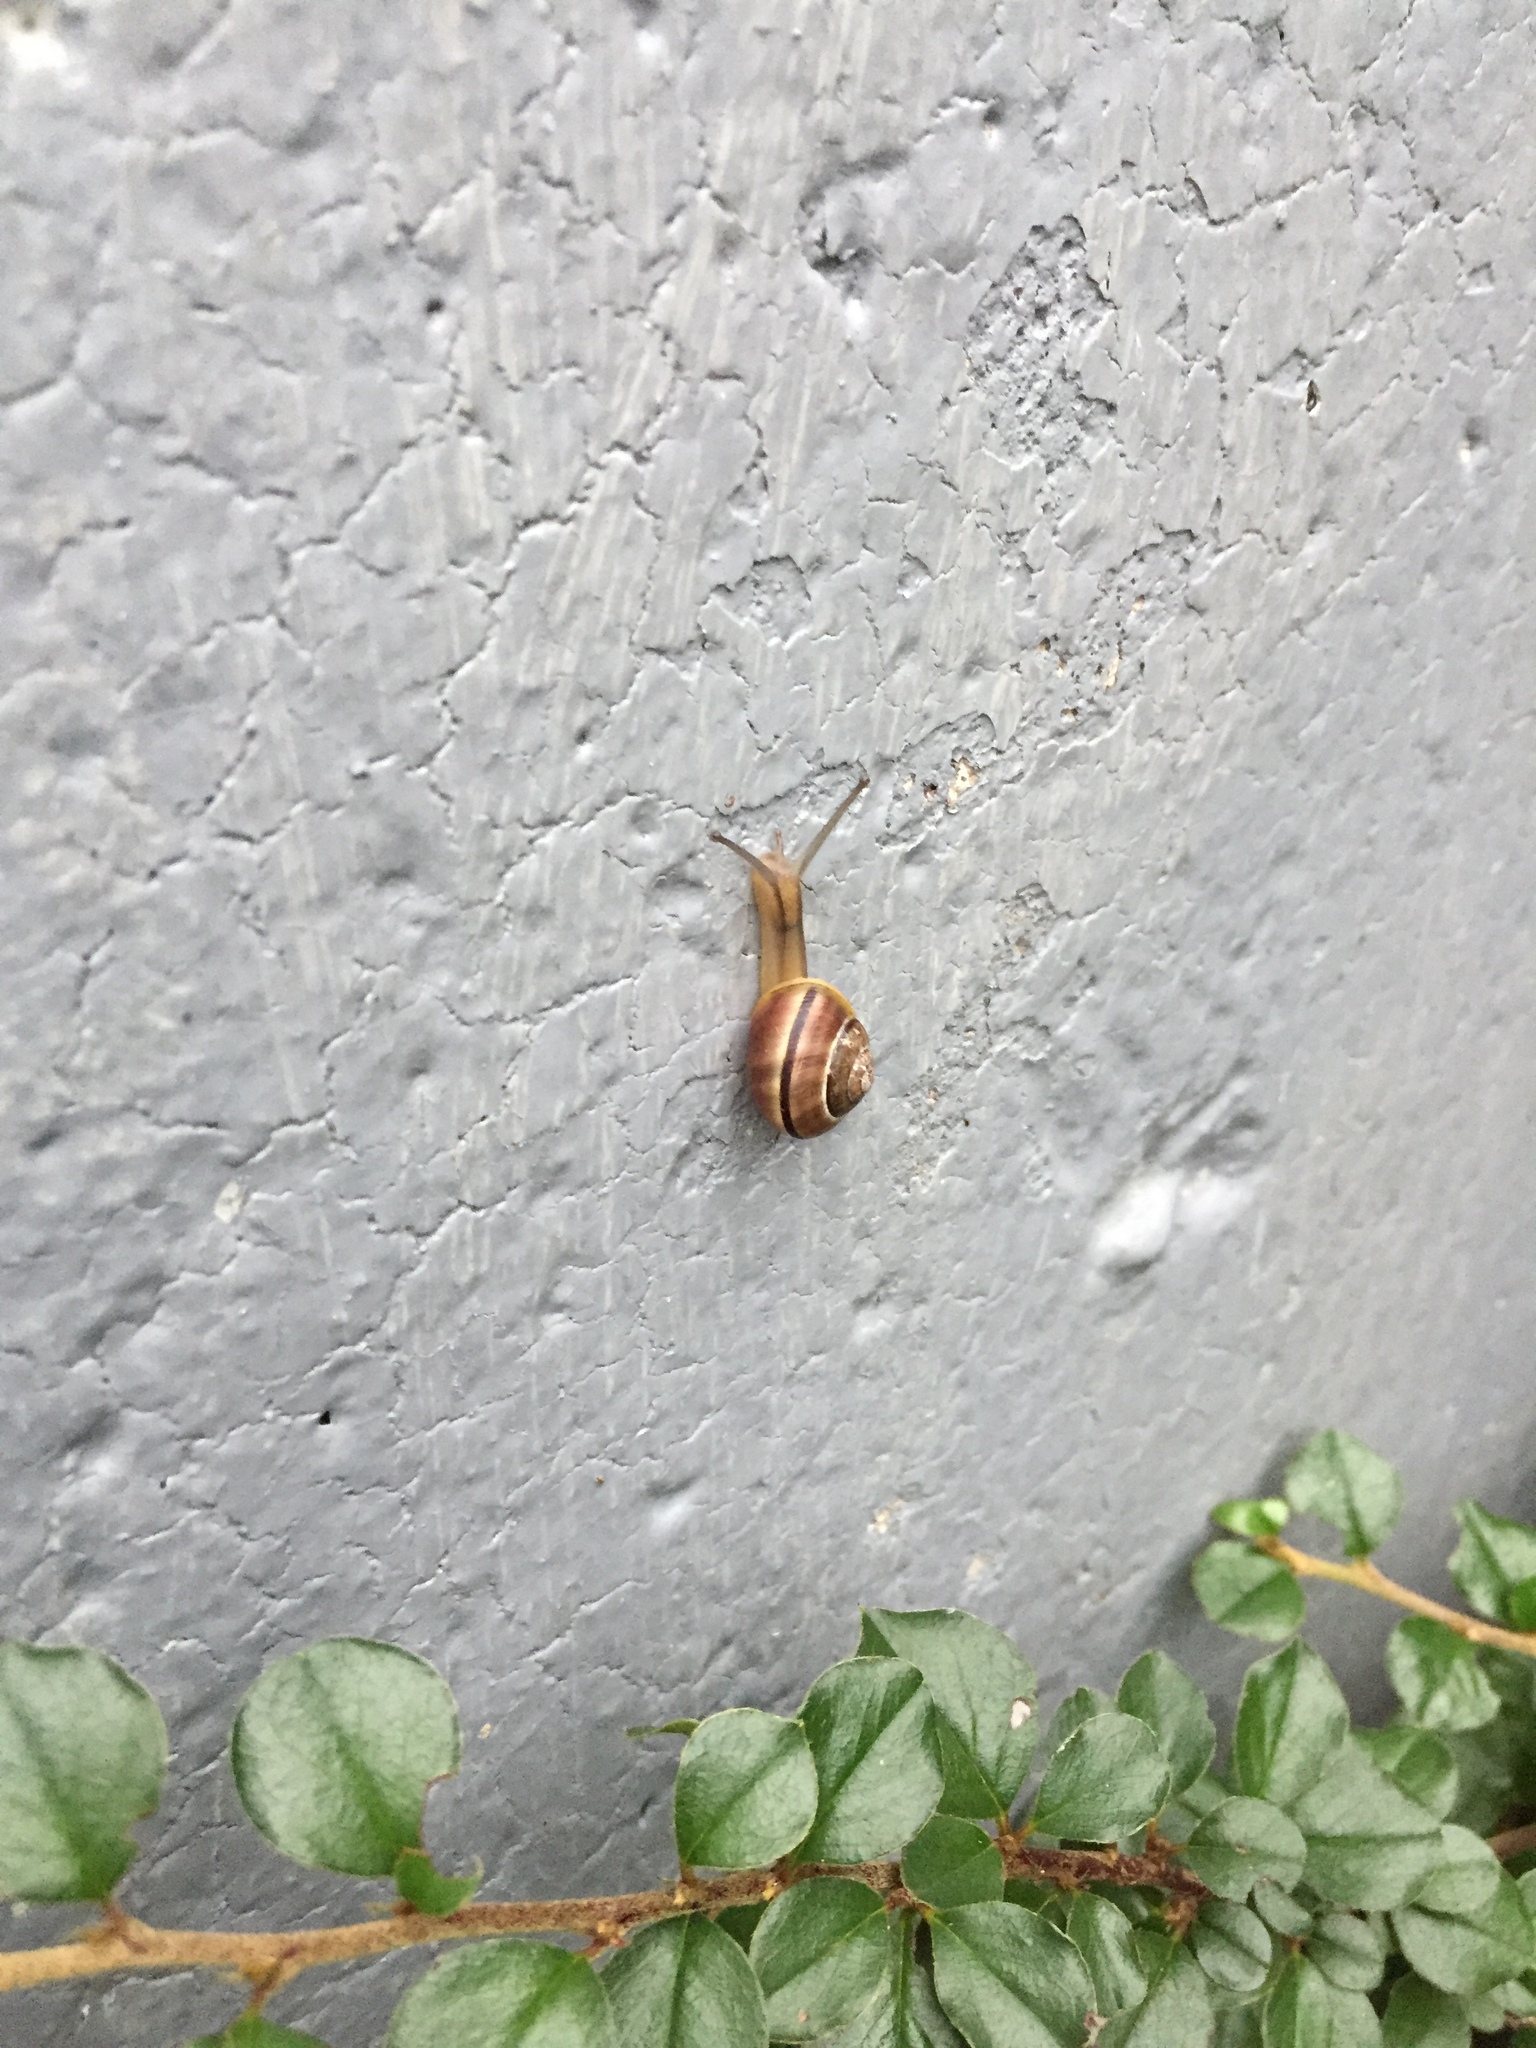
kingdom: Animalia
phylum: Mollusca
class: Gastropoda
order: Stylommatophora
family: Helicidae
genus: Cepaea
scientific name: Cepaea
